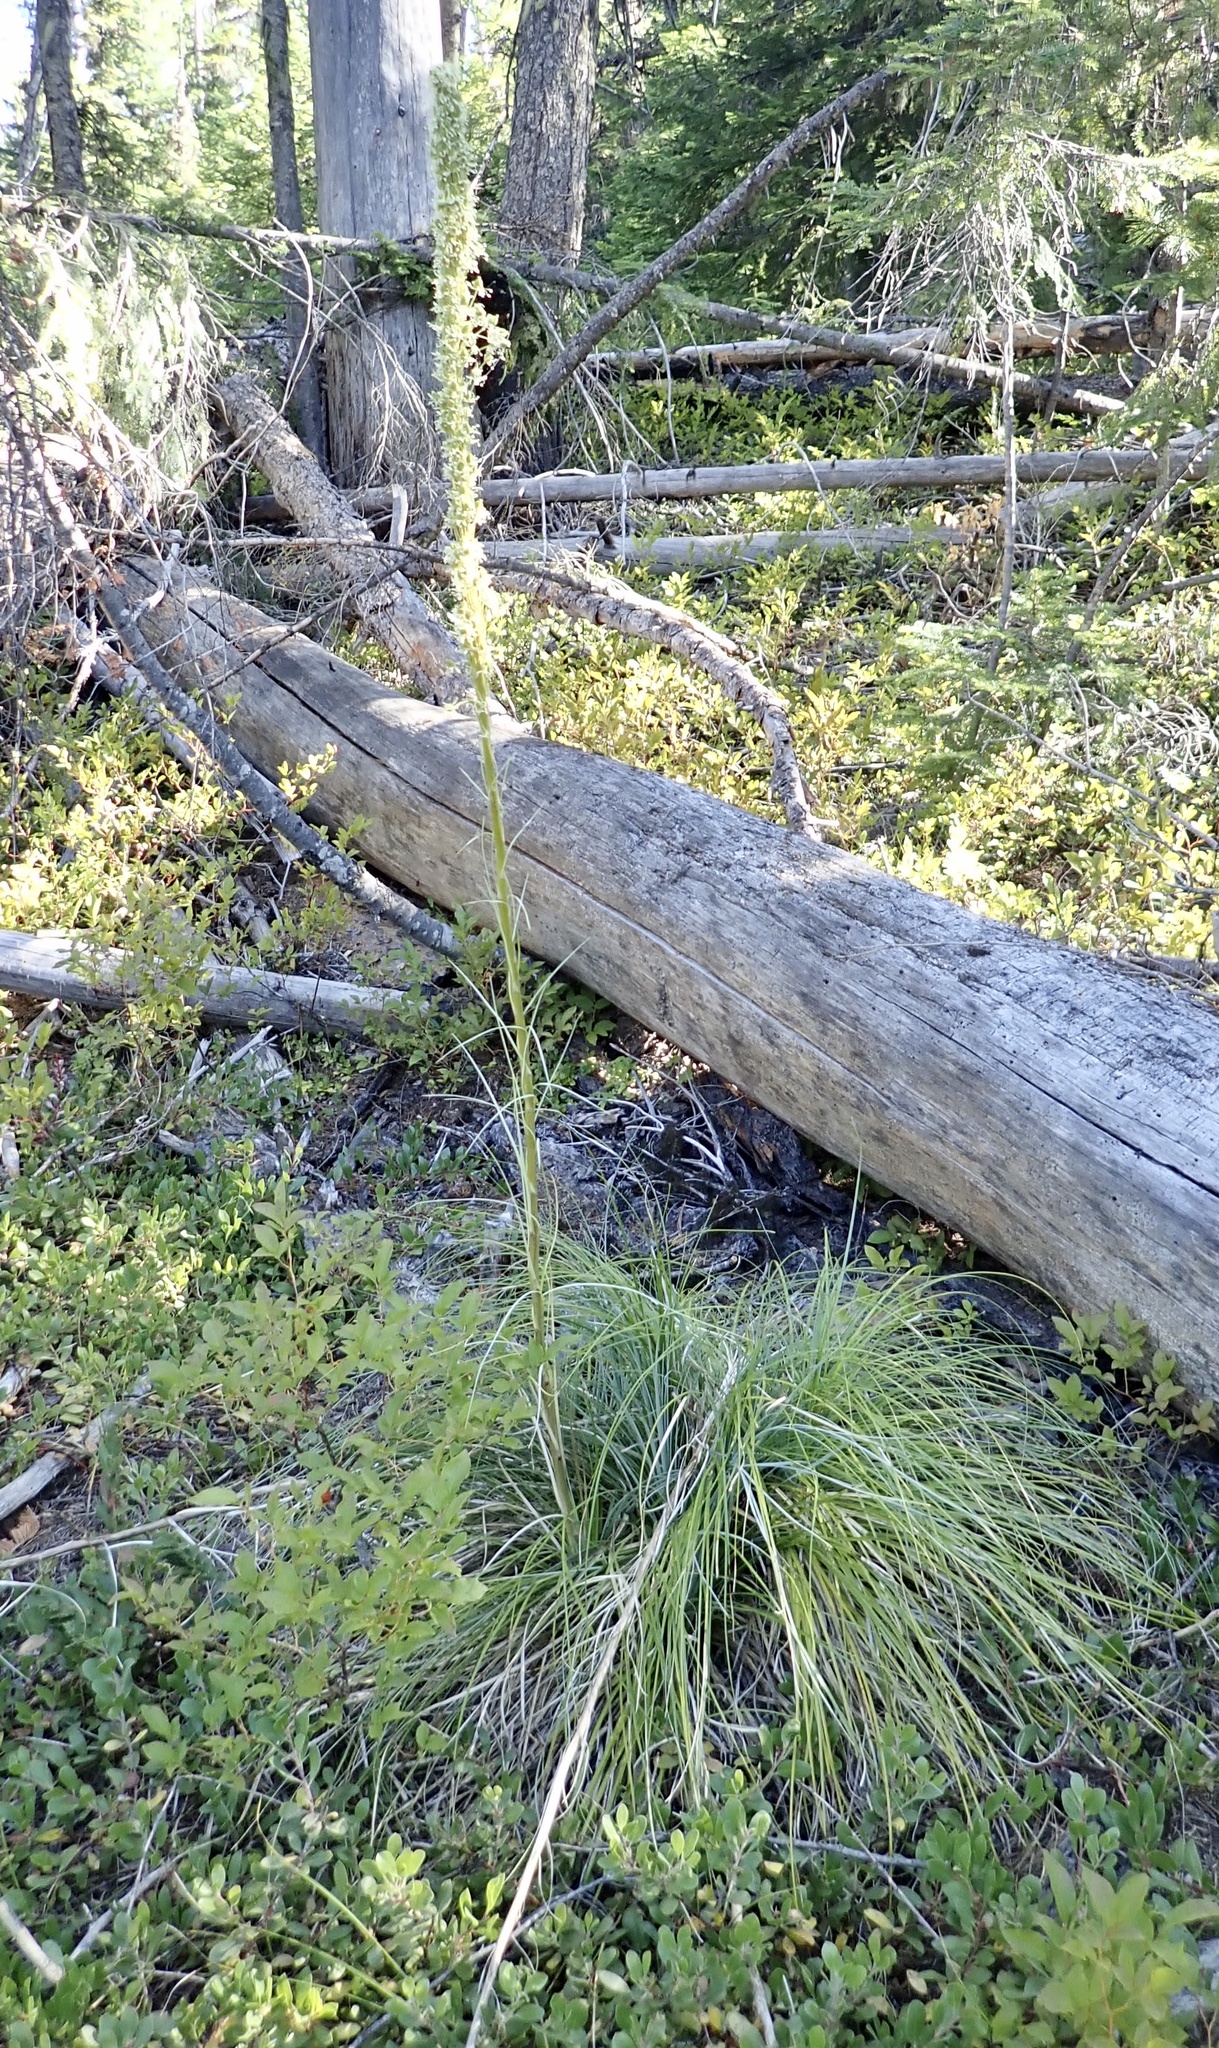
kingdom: Plantae
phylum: Tracheophyta
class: Liliopsida
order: Liliales
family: Melanthiaceae
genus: Xerophyllum
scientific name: Xerophyllum tenax
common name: Bear-grass
